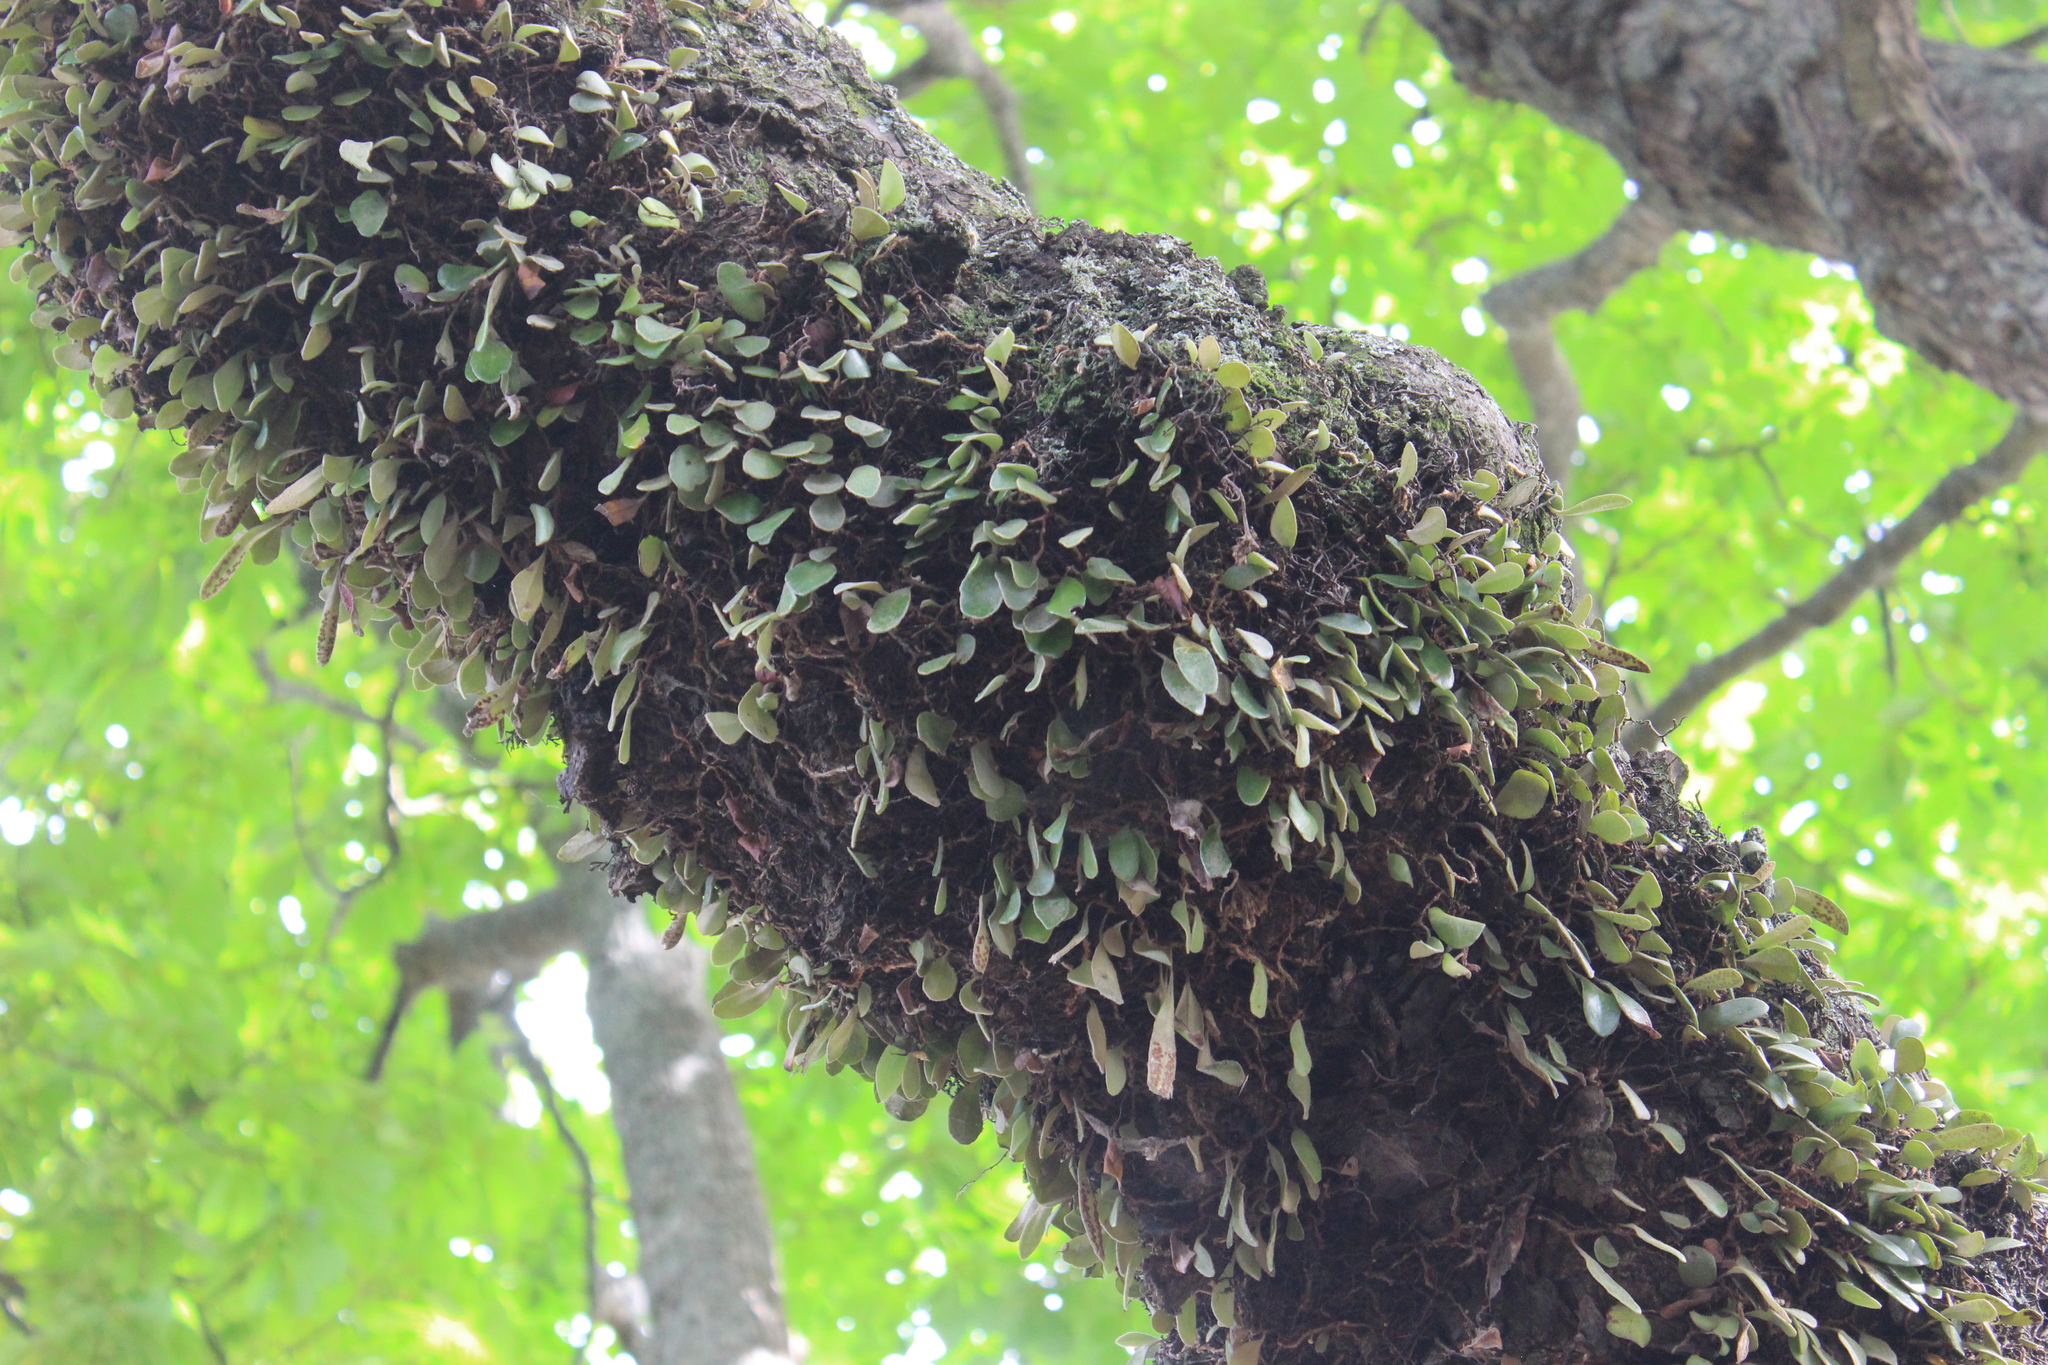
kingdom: Plantae
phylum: Tracheophyta
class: Polypodiopsida
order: Polypodiales
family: Polypodiaceae
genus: Pyrrosia
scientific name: Pyrrosia eleagnifolia
